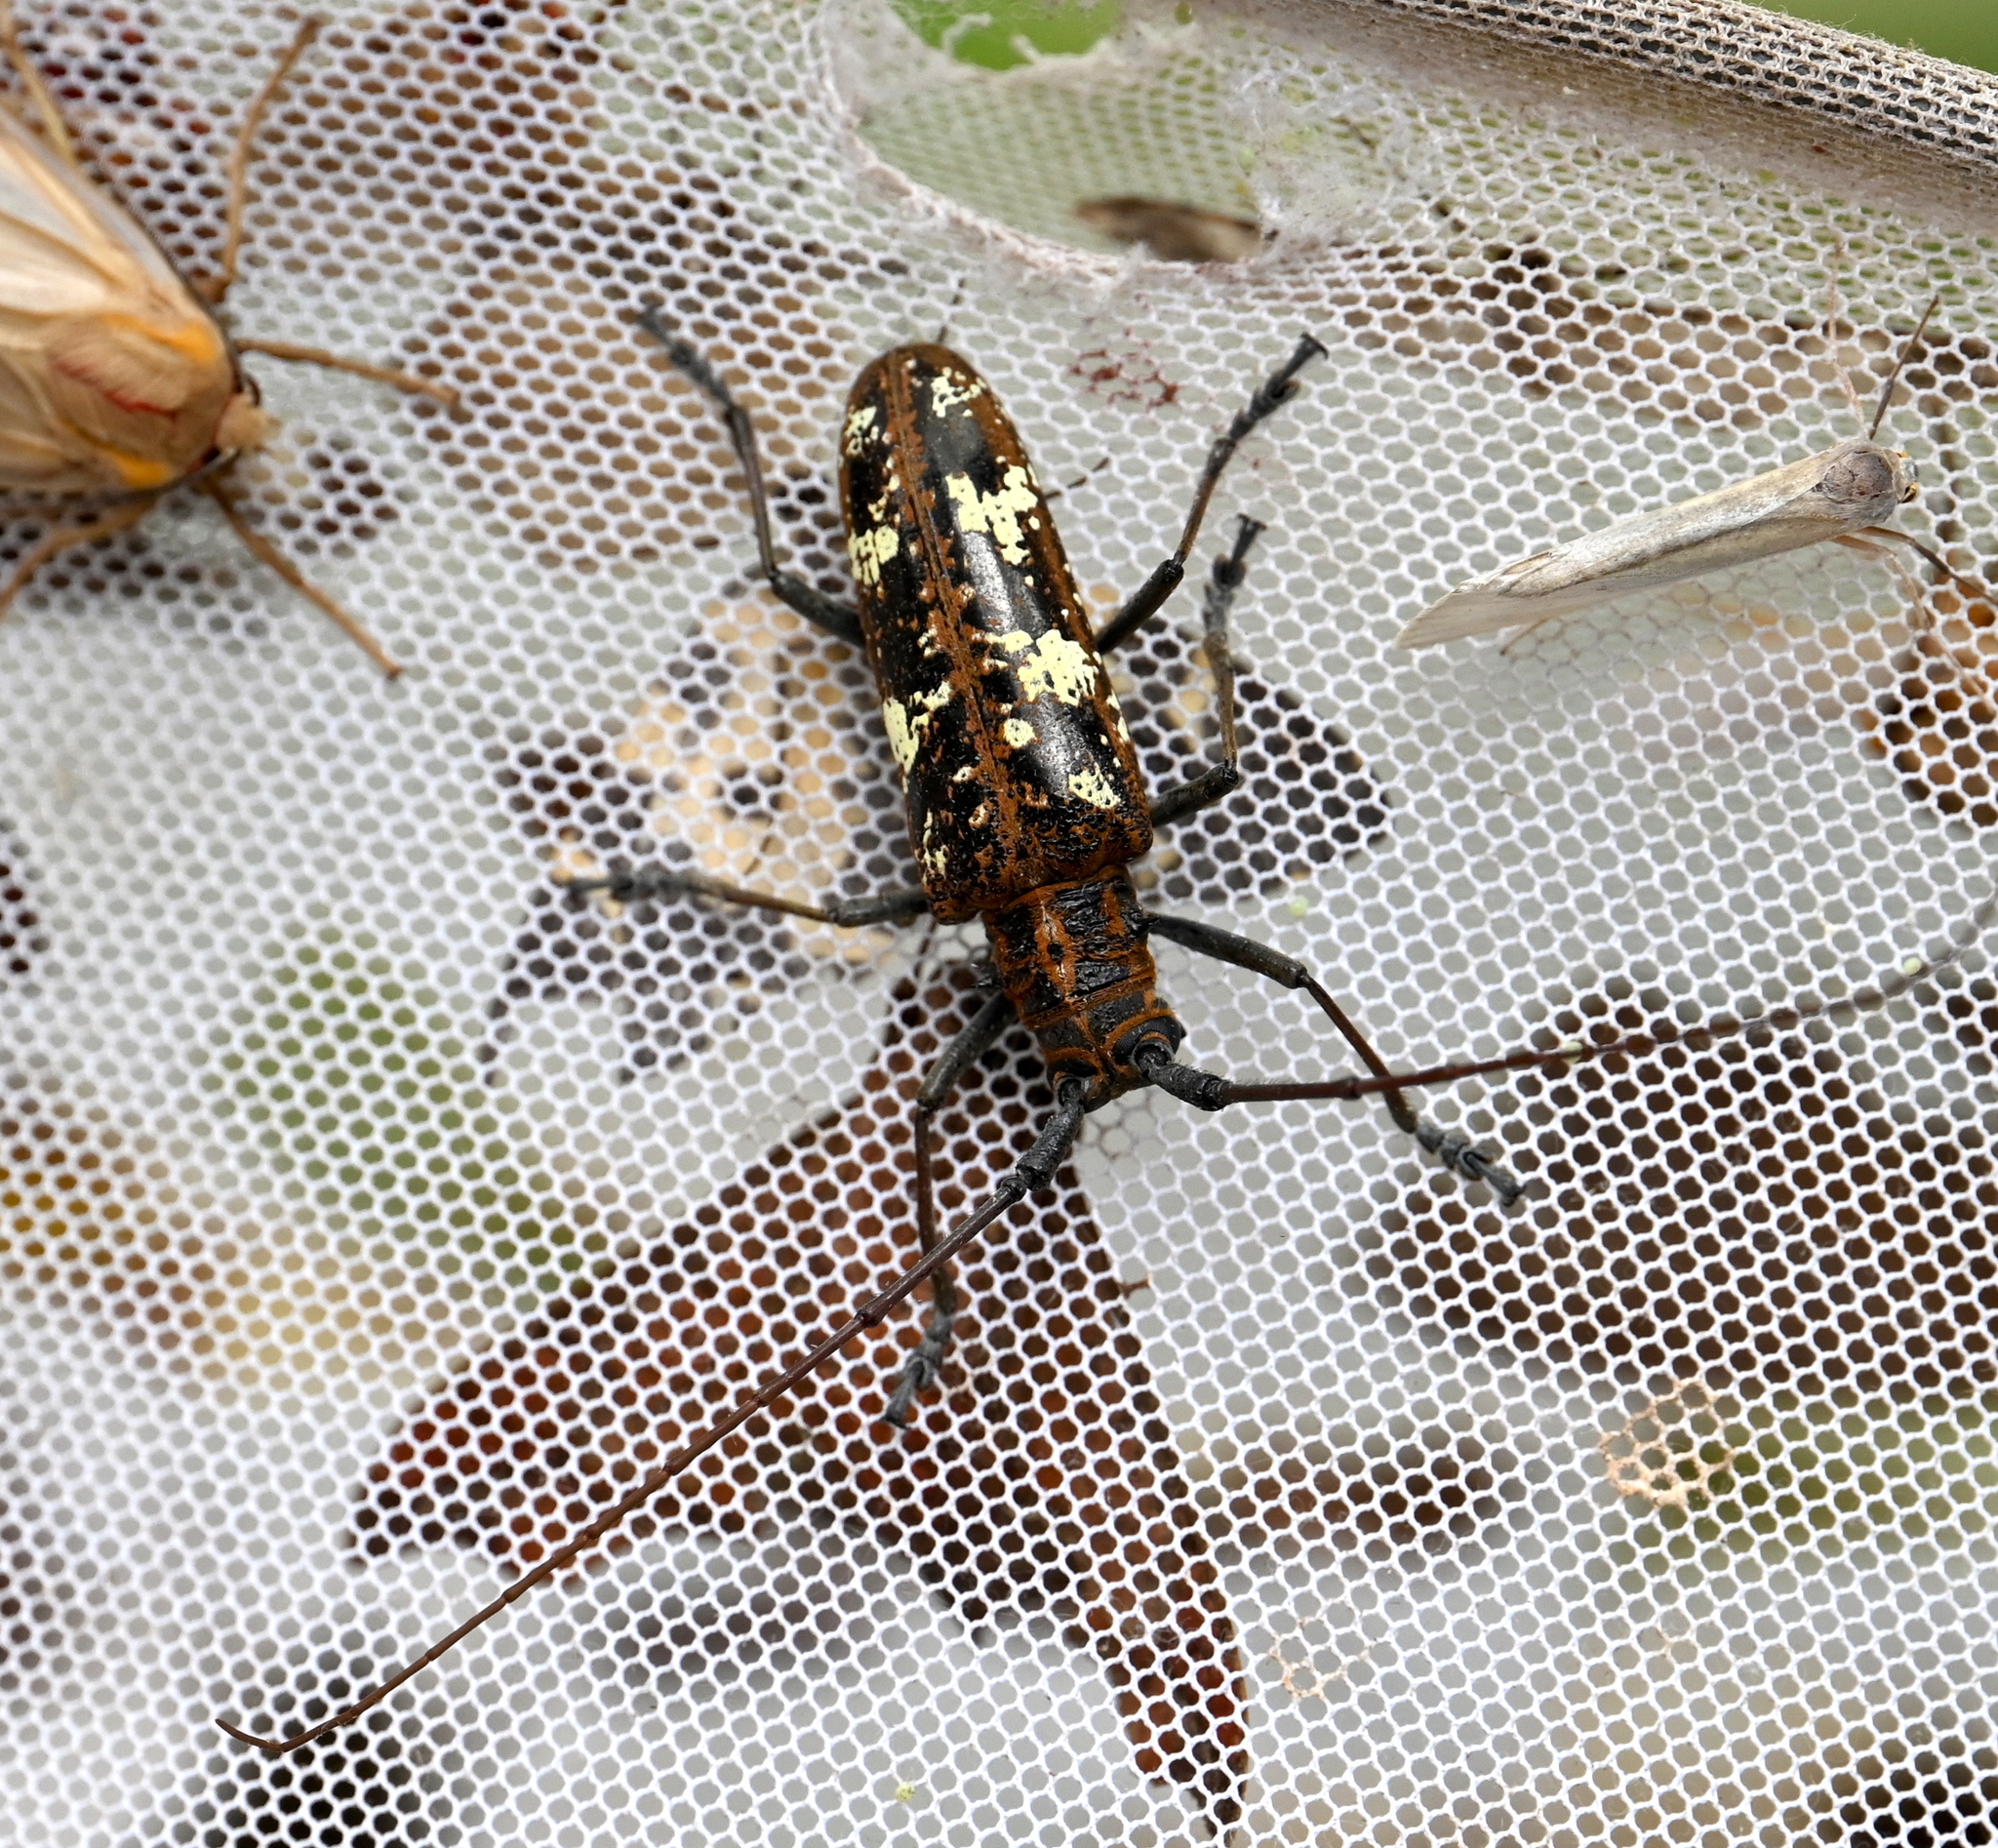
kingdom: Animalia
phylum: Arthropoda
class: Insecta
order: Coleoptera
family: Cerambycidae
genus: Taeniotes
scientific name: Taeniotes marmoratus
